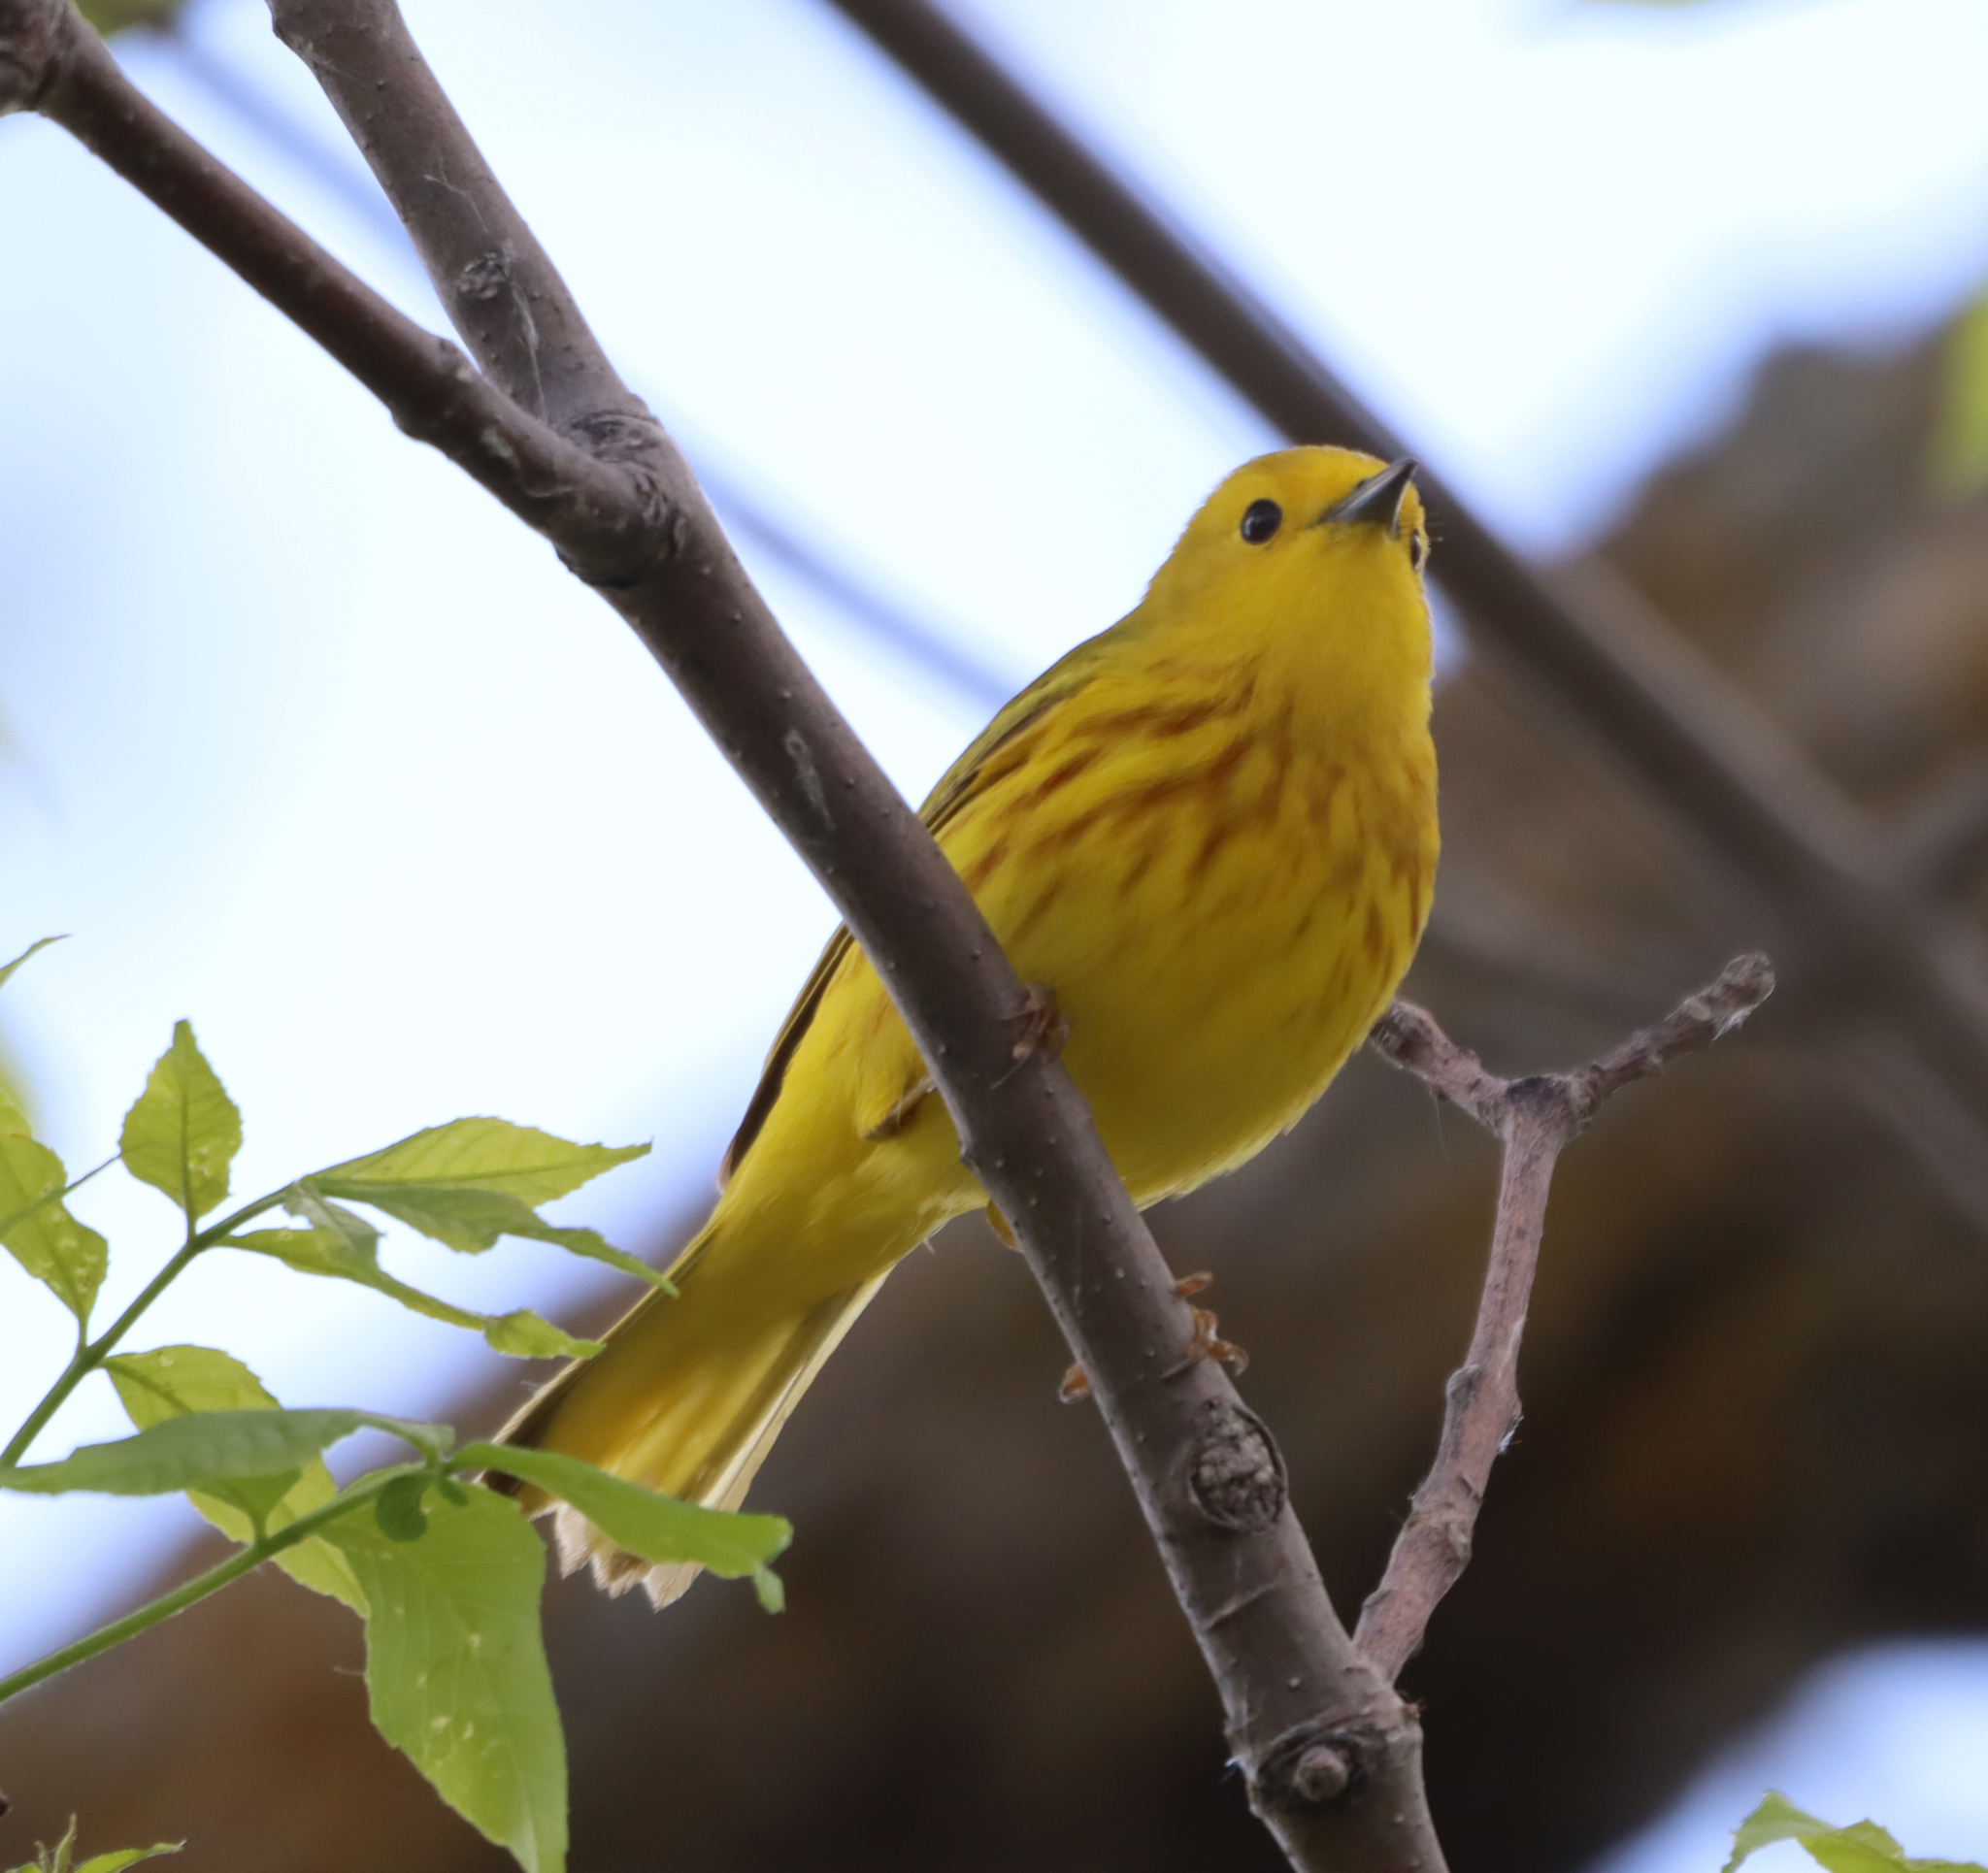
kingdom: Animalia
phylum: Chordata
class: Aves
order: Passeriformes
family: Parulidae
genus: Setophaga
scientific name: Setophaga petechia
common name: Yellow warbler
